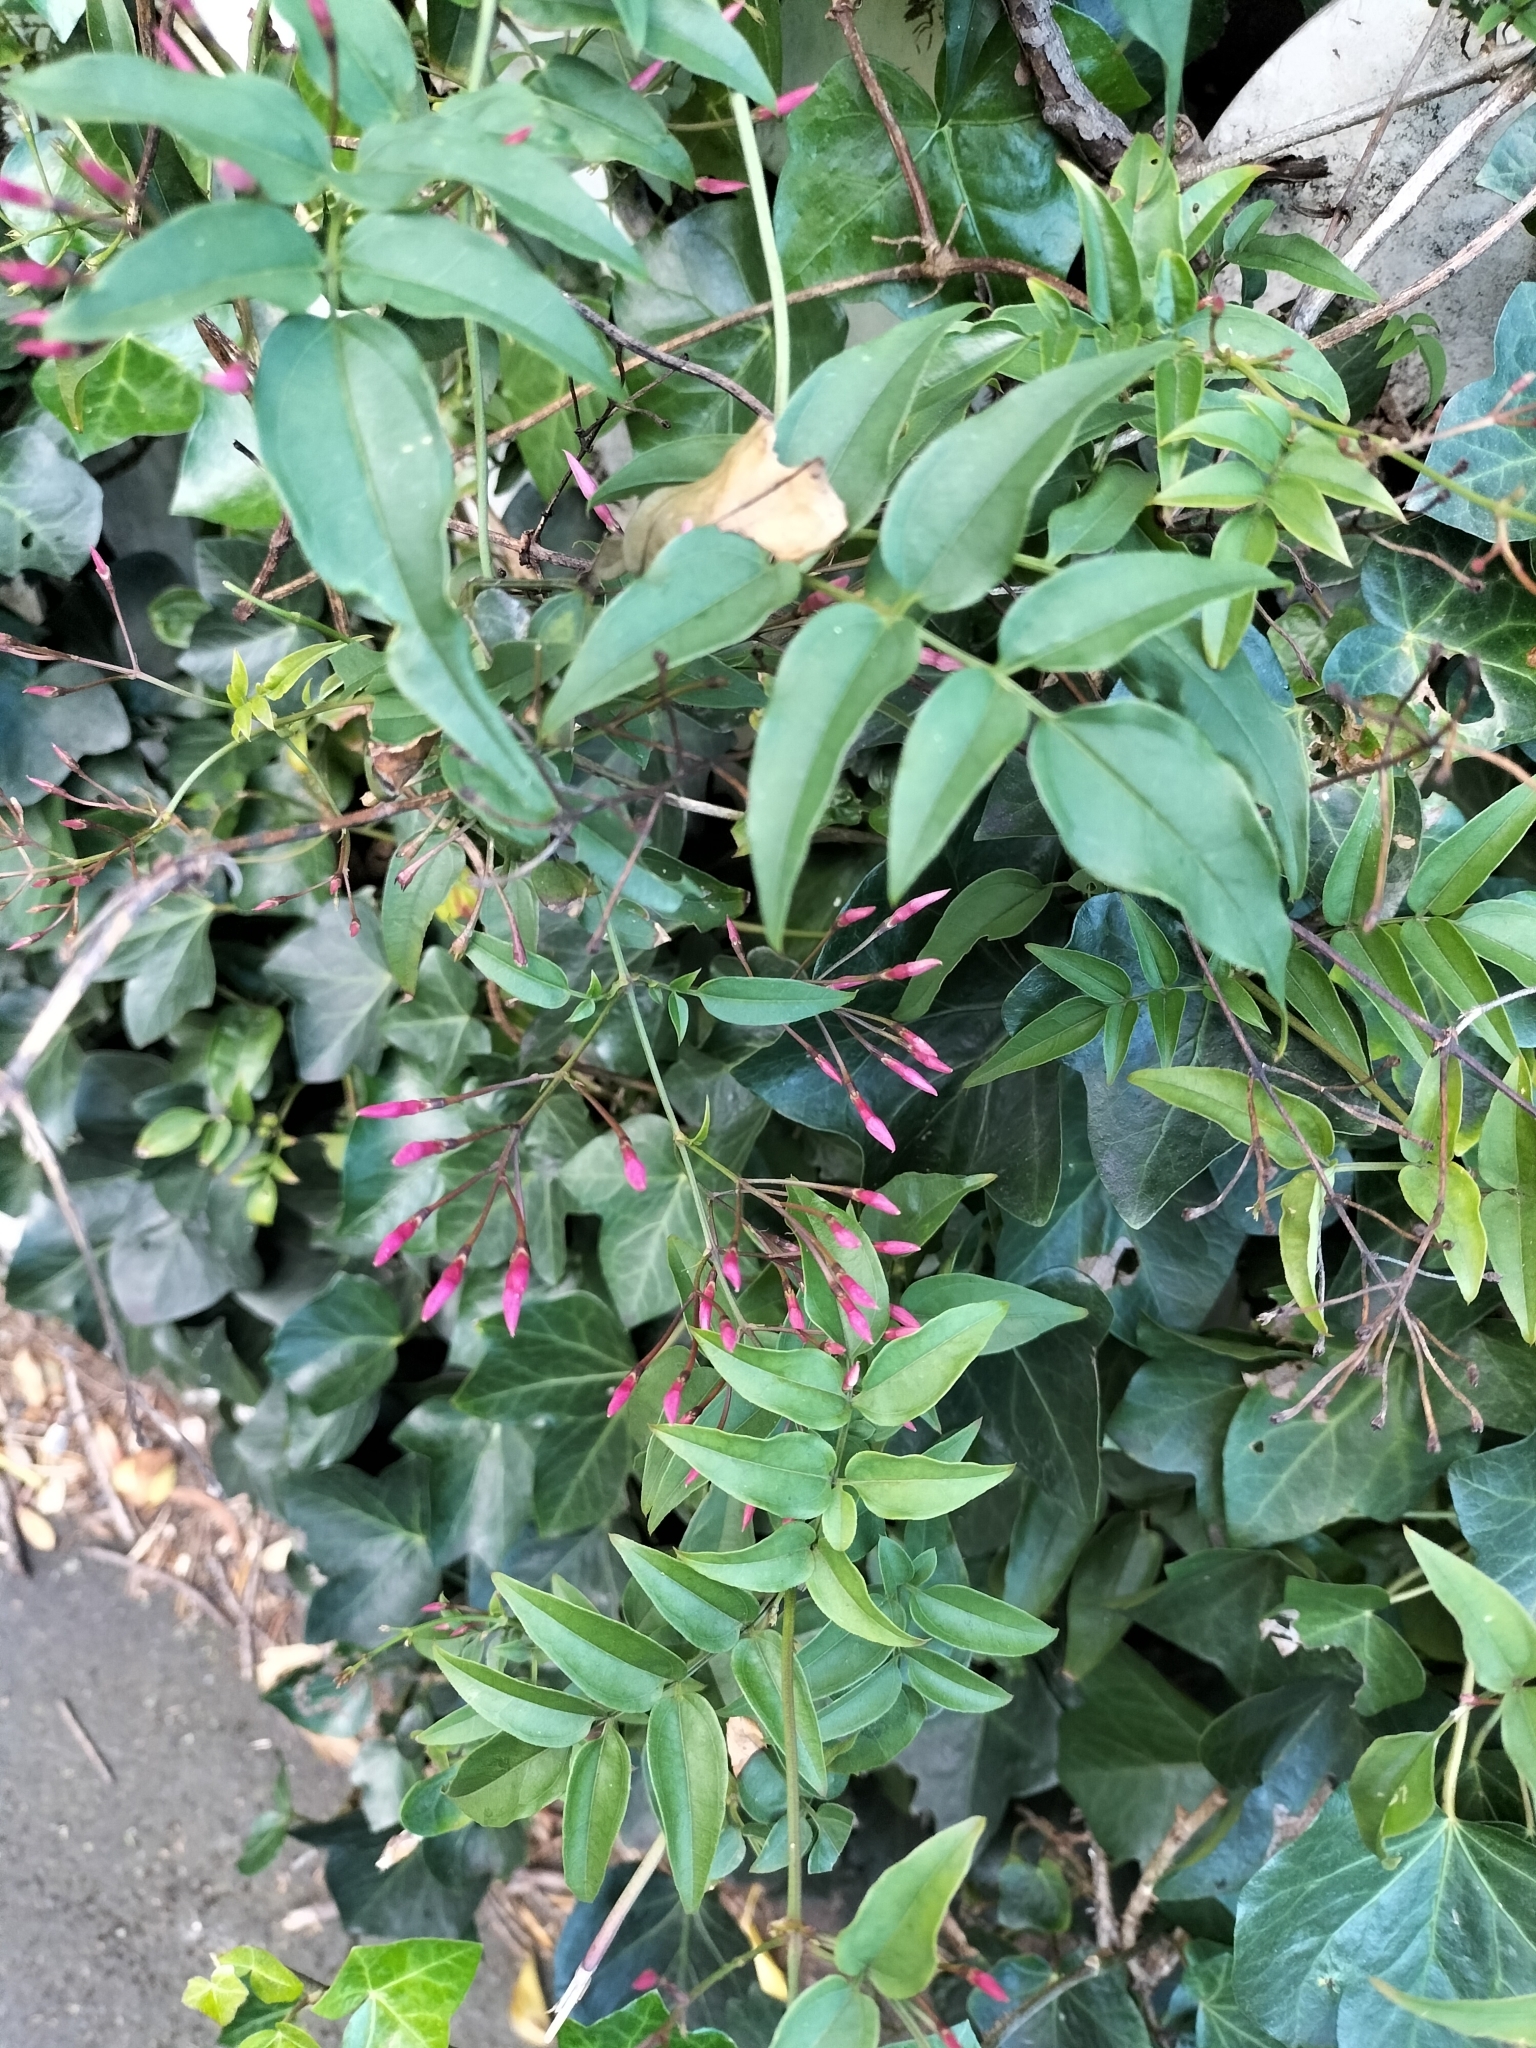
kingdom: Plantae
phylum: Tracheophyta
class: Magnoliopsida
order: Lamiales
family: Oleaceae
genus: Jasminum
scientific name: Jasminum polyanthum
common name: Pink jasmine
